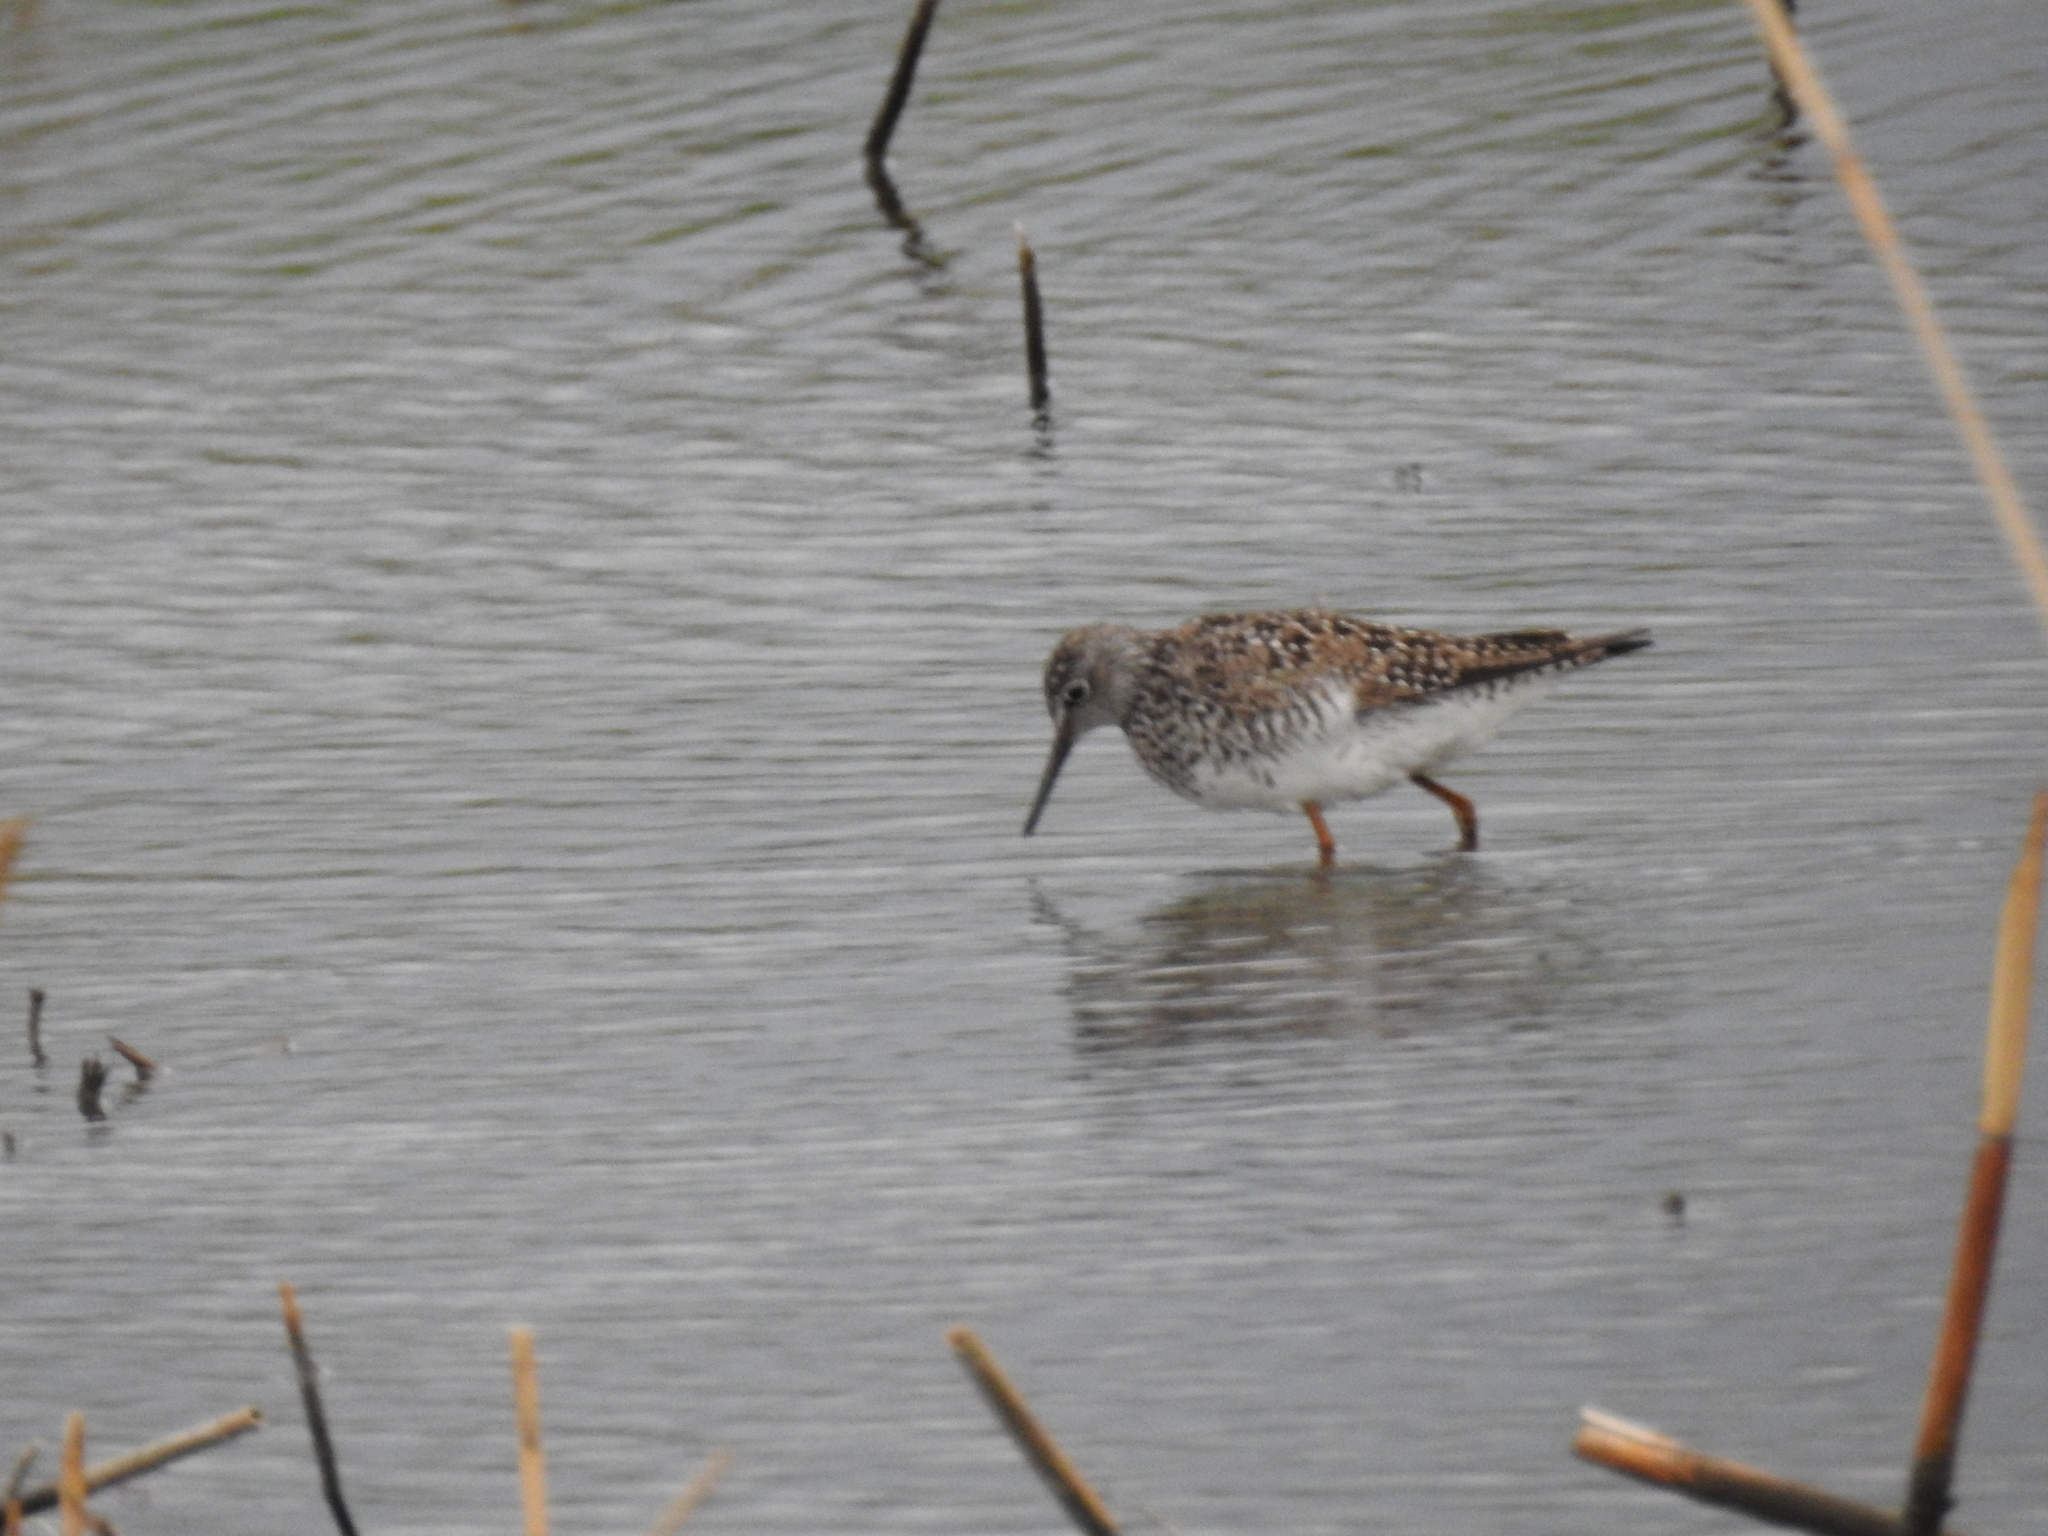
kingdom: Animalia
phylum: Chordata
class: Aves
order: Charadriiformes
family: Scolopacidae
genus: Tringa
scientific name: Tringa flavipes
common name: Lesser yellowlegs
